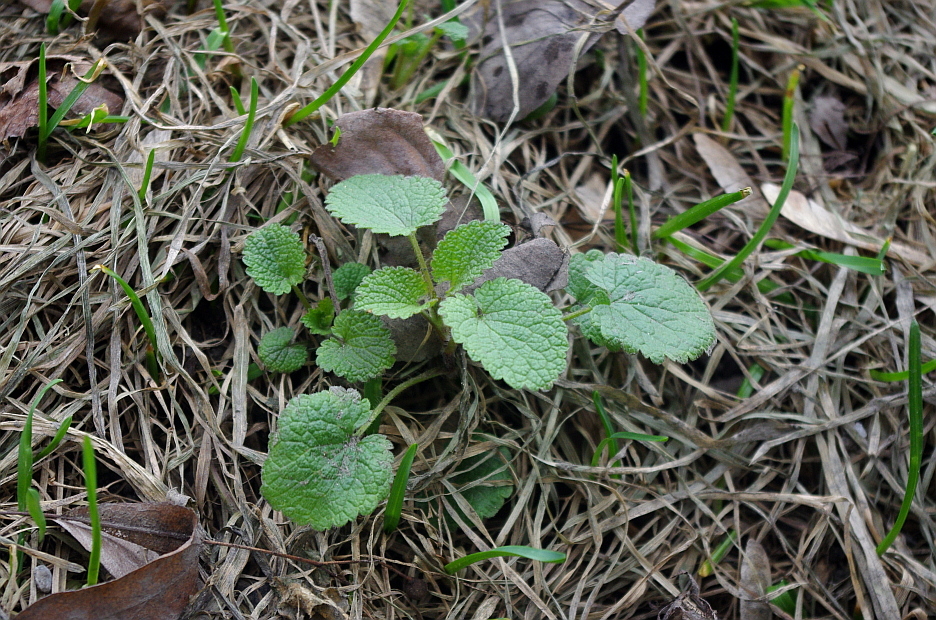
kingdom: Plantae
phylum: Tracheophyta
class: Magnoliopsida
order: Lamiales
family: Lamiaceae
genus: Lamium
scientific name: Lamium album
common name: White dead-nettle
